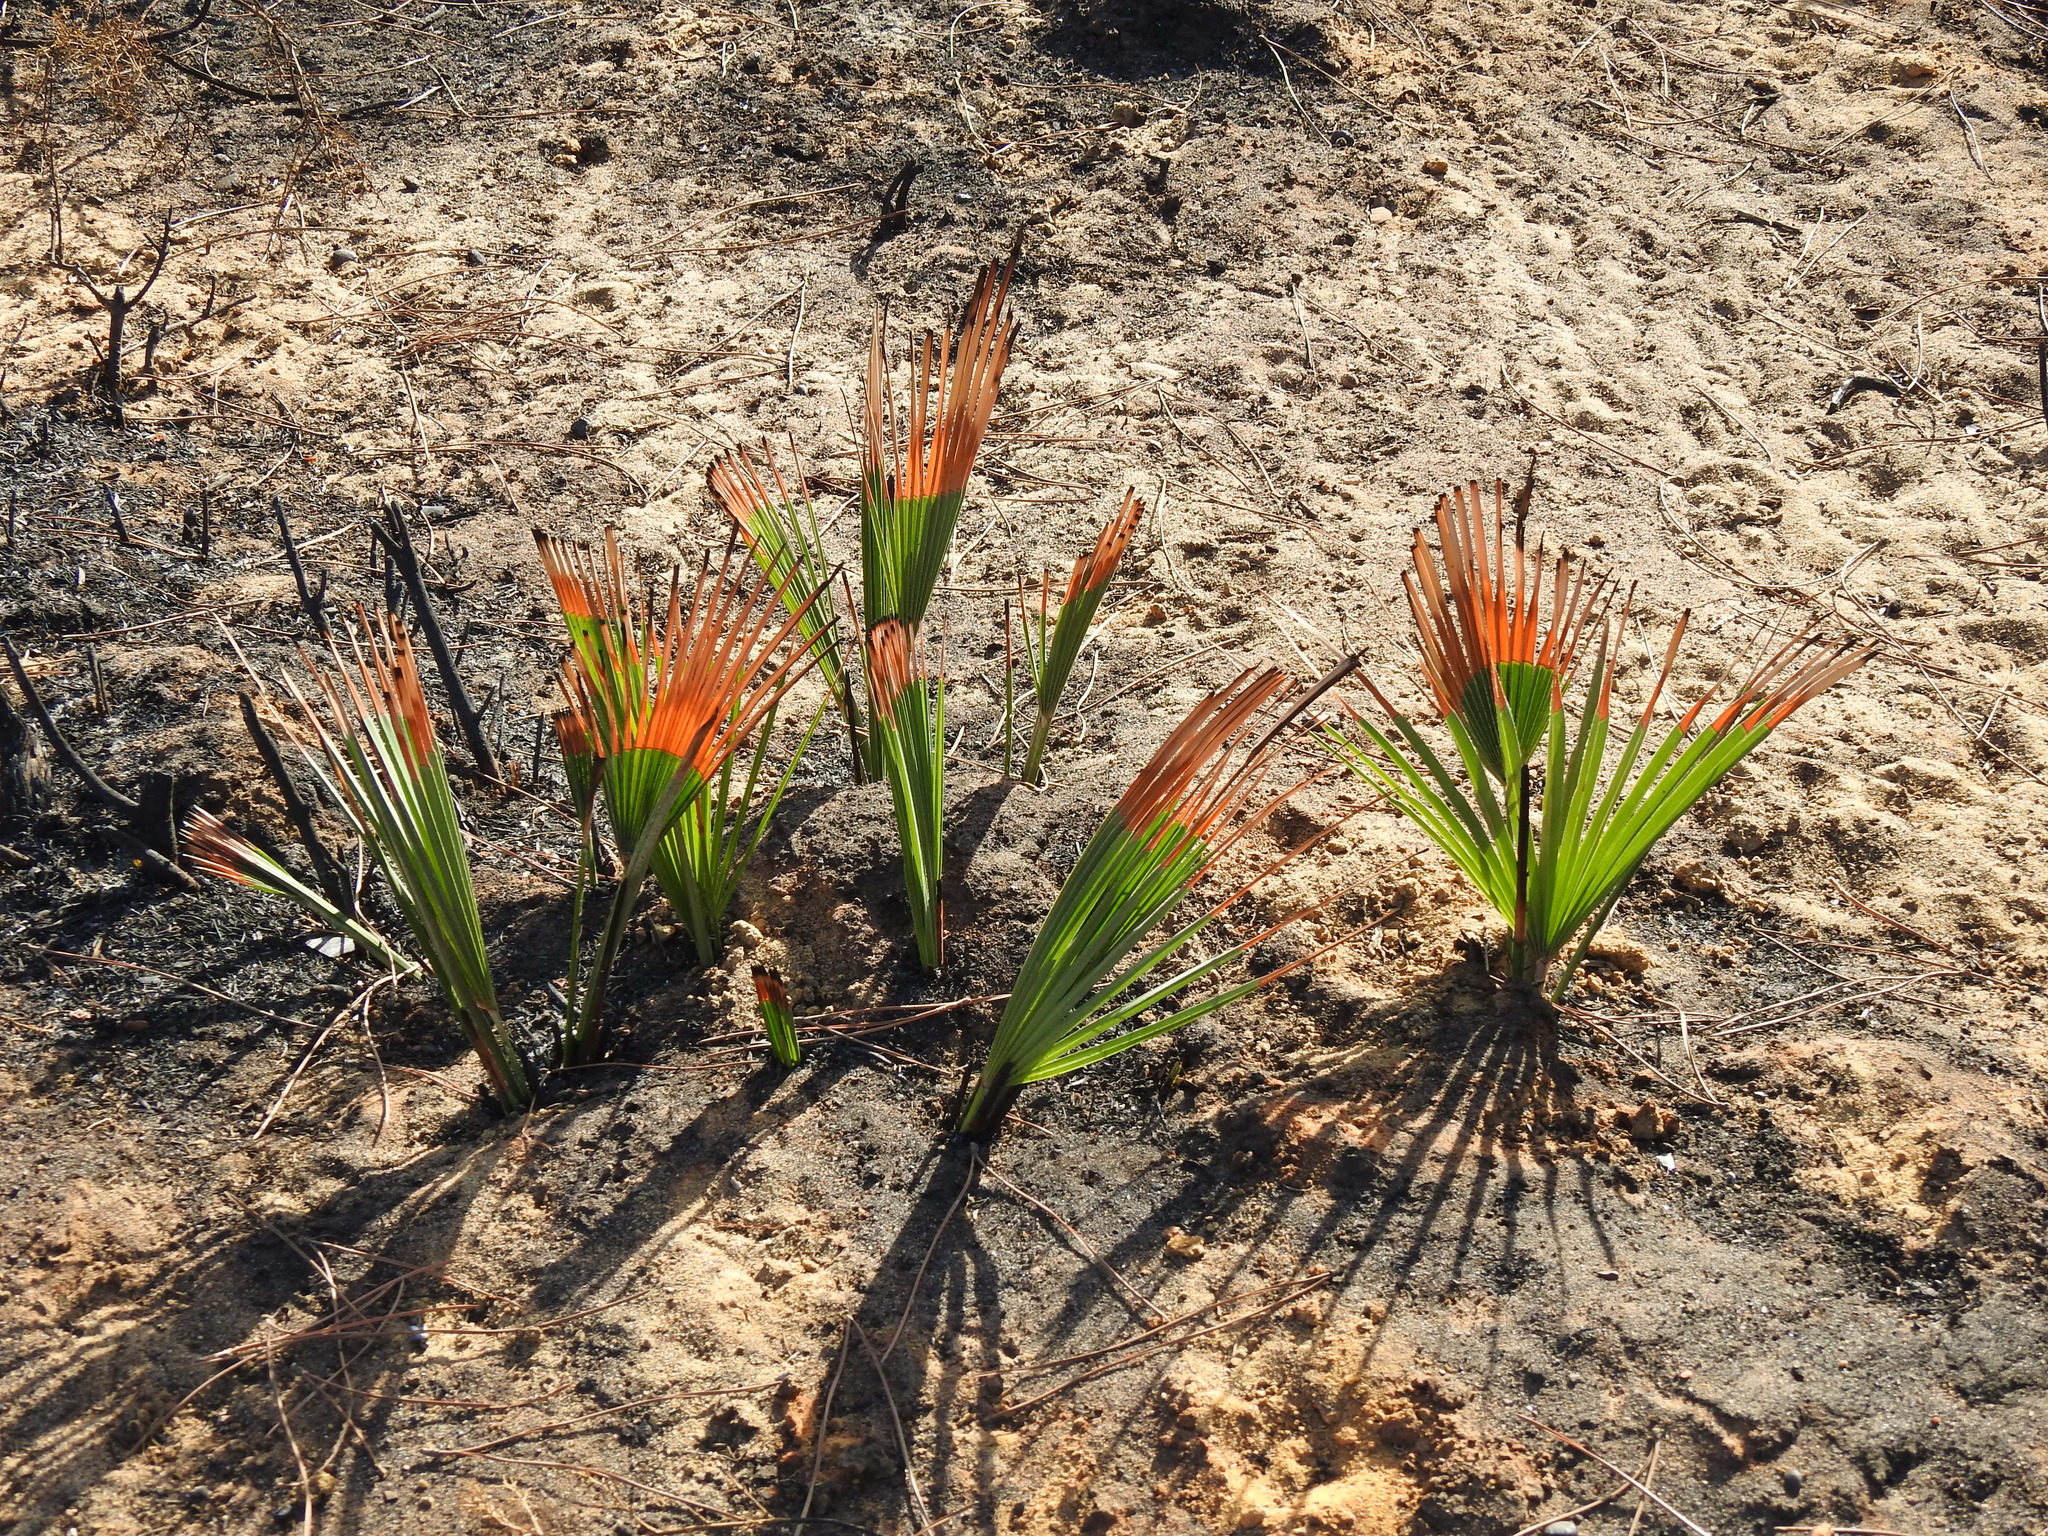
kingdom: Plantae
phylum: Tracheophyta
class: Liliopsida
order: Arecales
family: Arecaceae
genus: Chamaerops
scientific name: Chamaerops humilis
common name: Dwarf fan palm
